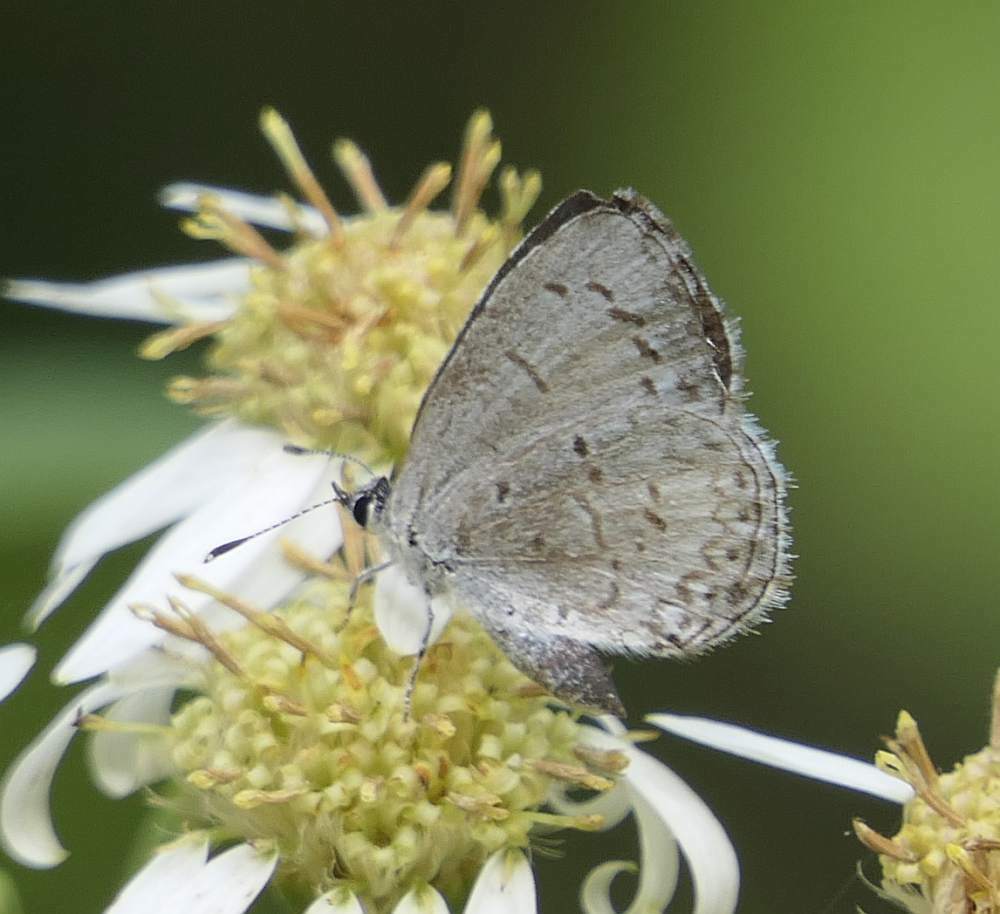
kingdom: Animalia
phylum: Arthropoda
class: Insecta
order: Lepidoptera
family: Lycaenidae
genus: Celastrina
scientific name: Celastrina lucia
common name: Lucia azure
